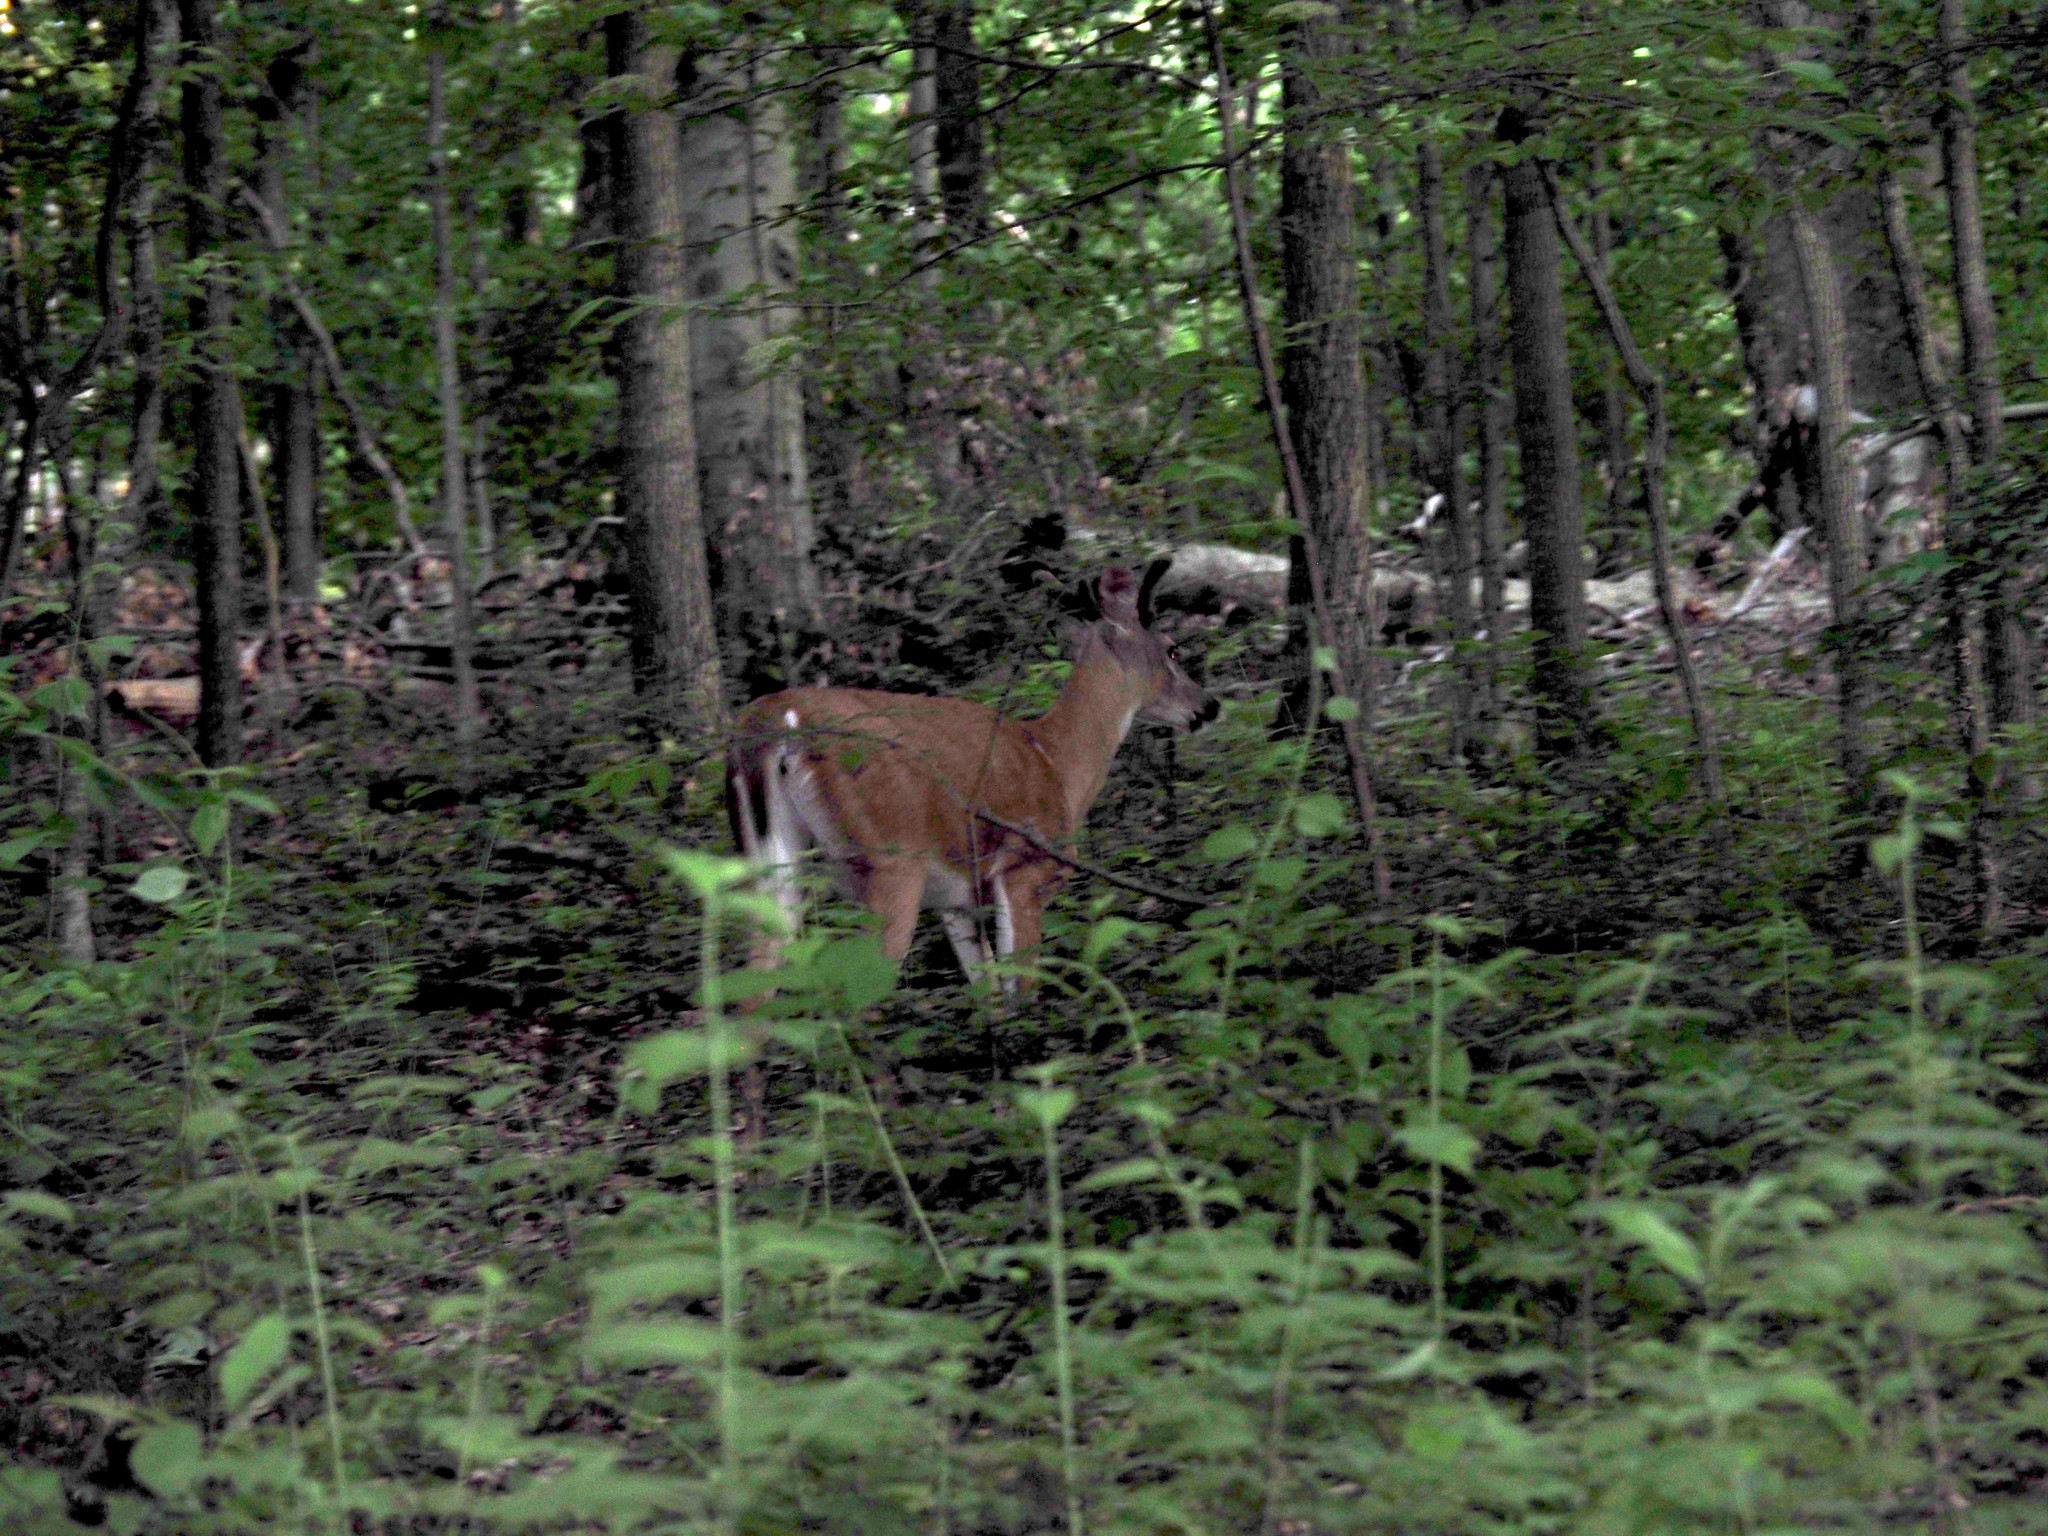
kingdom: Animalia
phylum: Chordata
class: Mammalia
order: Artiodactyla
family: Cervidae
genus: Odocoileus
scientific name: Odocoileus virginianus
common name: White-tailed deer
